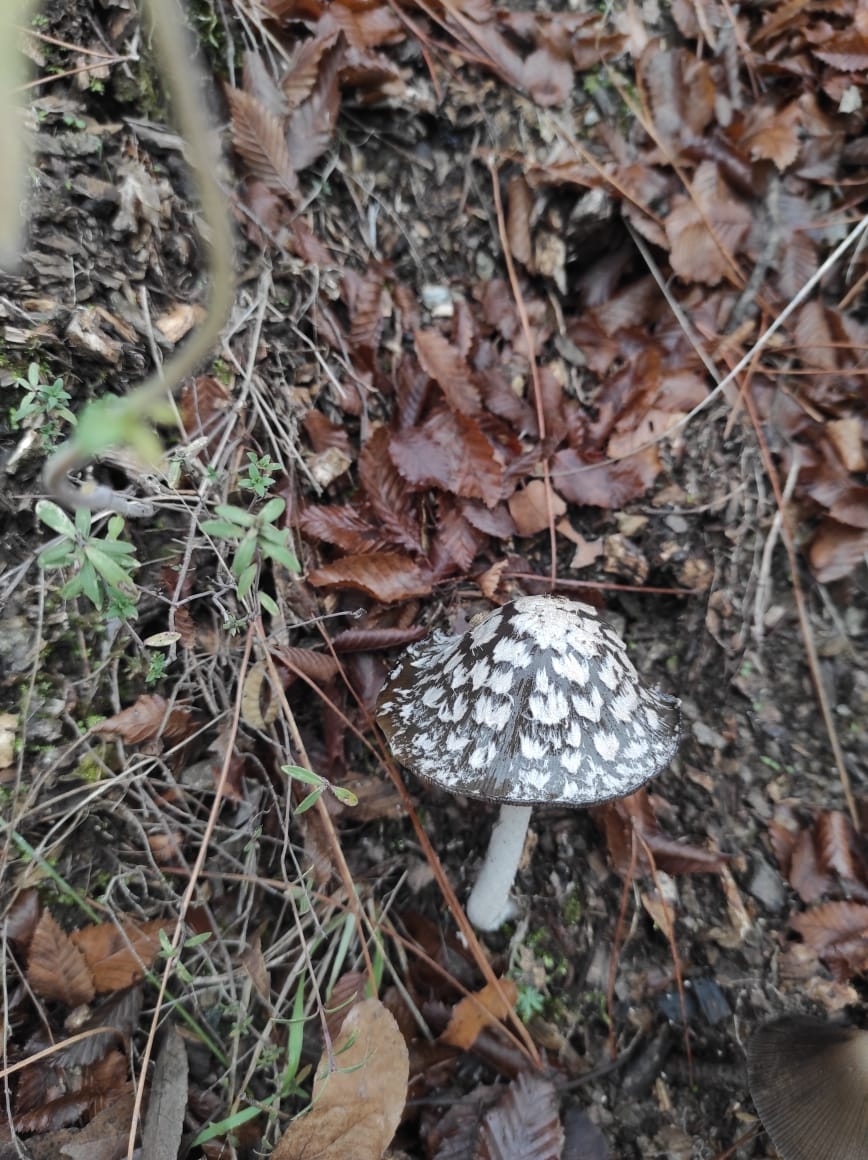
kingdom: Fungi
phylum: Basidiomycota
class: Agaricomycetes
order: Agaricales
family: Psathyrellaceae
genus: Coprinopsis
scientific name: Coprinopsis picacea
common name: Magpie inkcap
